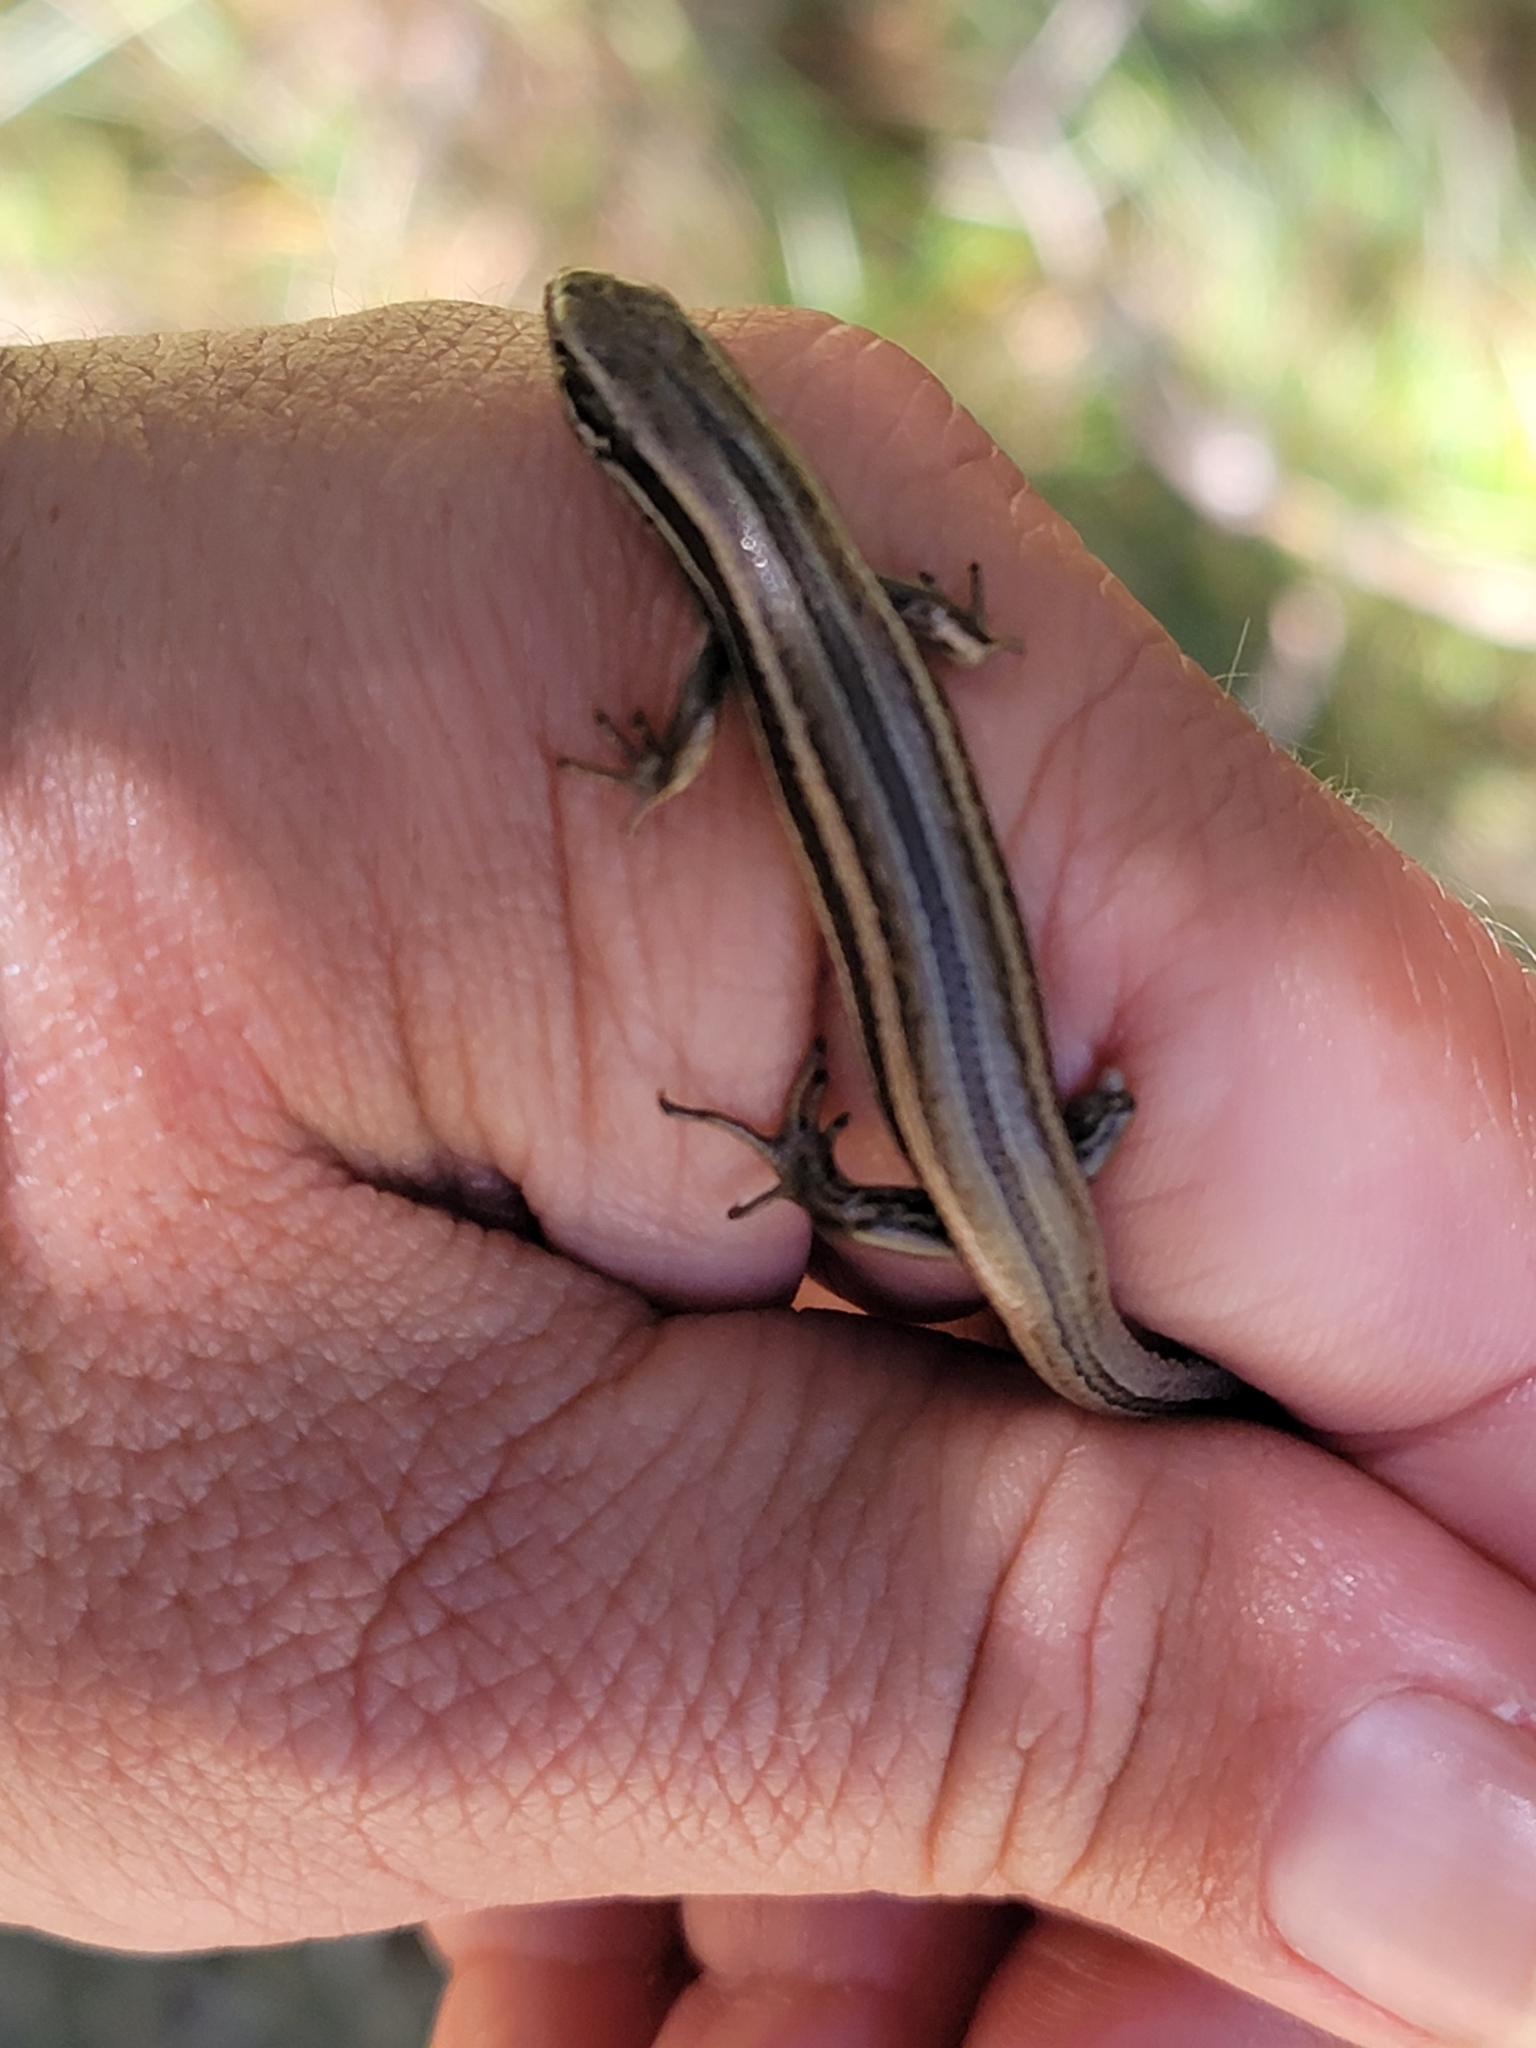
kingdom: Animalia
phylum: Chordata
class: Squamata
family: Scincidae
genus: Oligosoma
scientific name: Oligosoma polychroma
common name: Common new zealand skink
